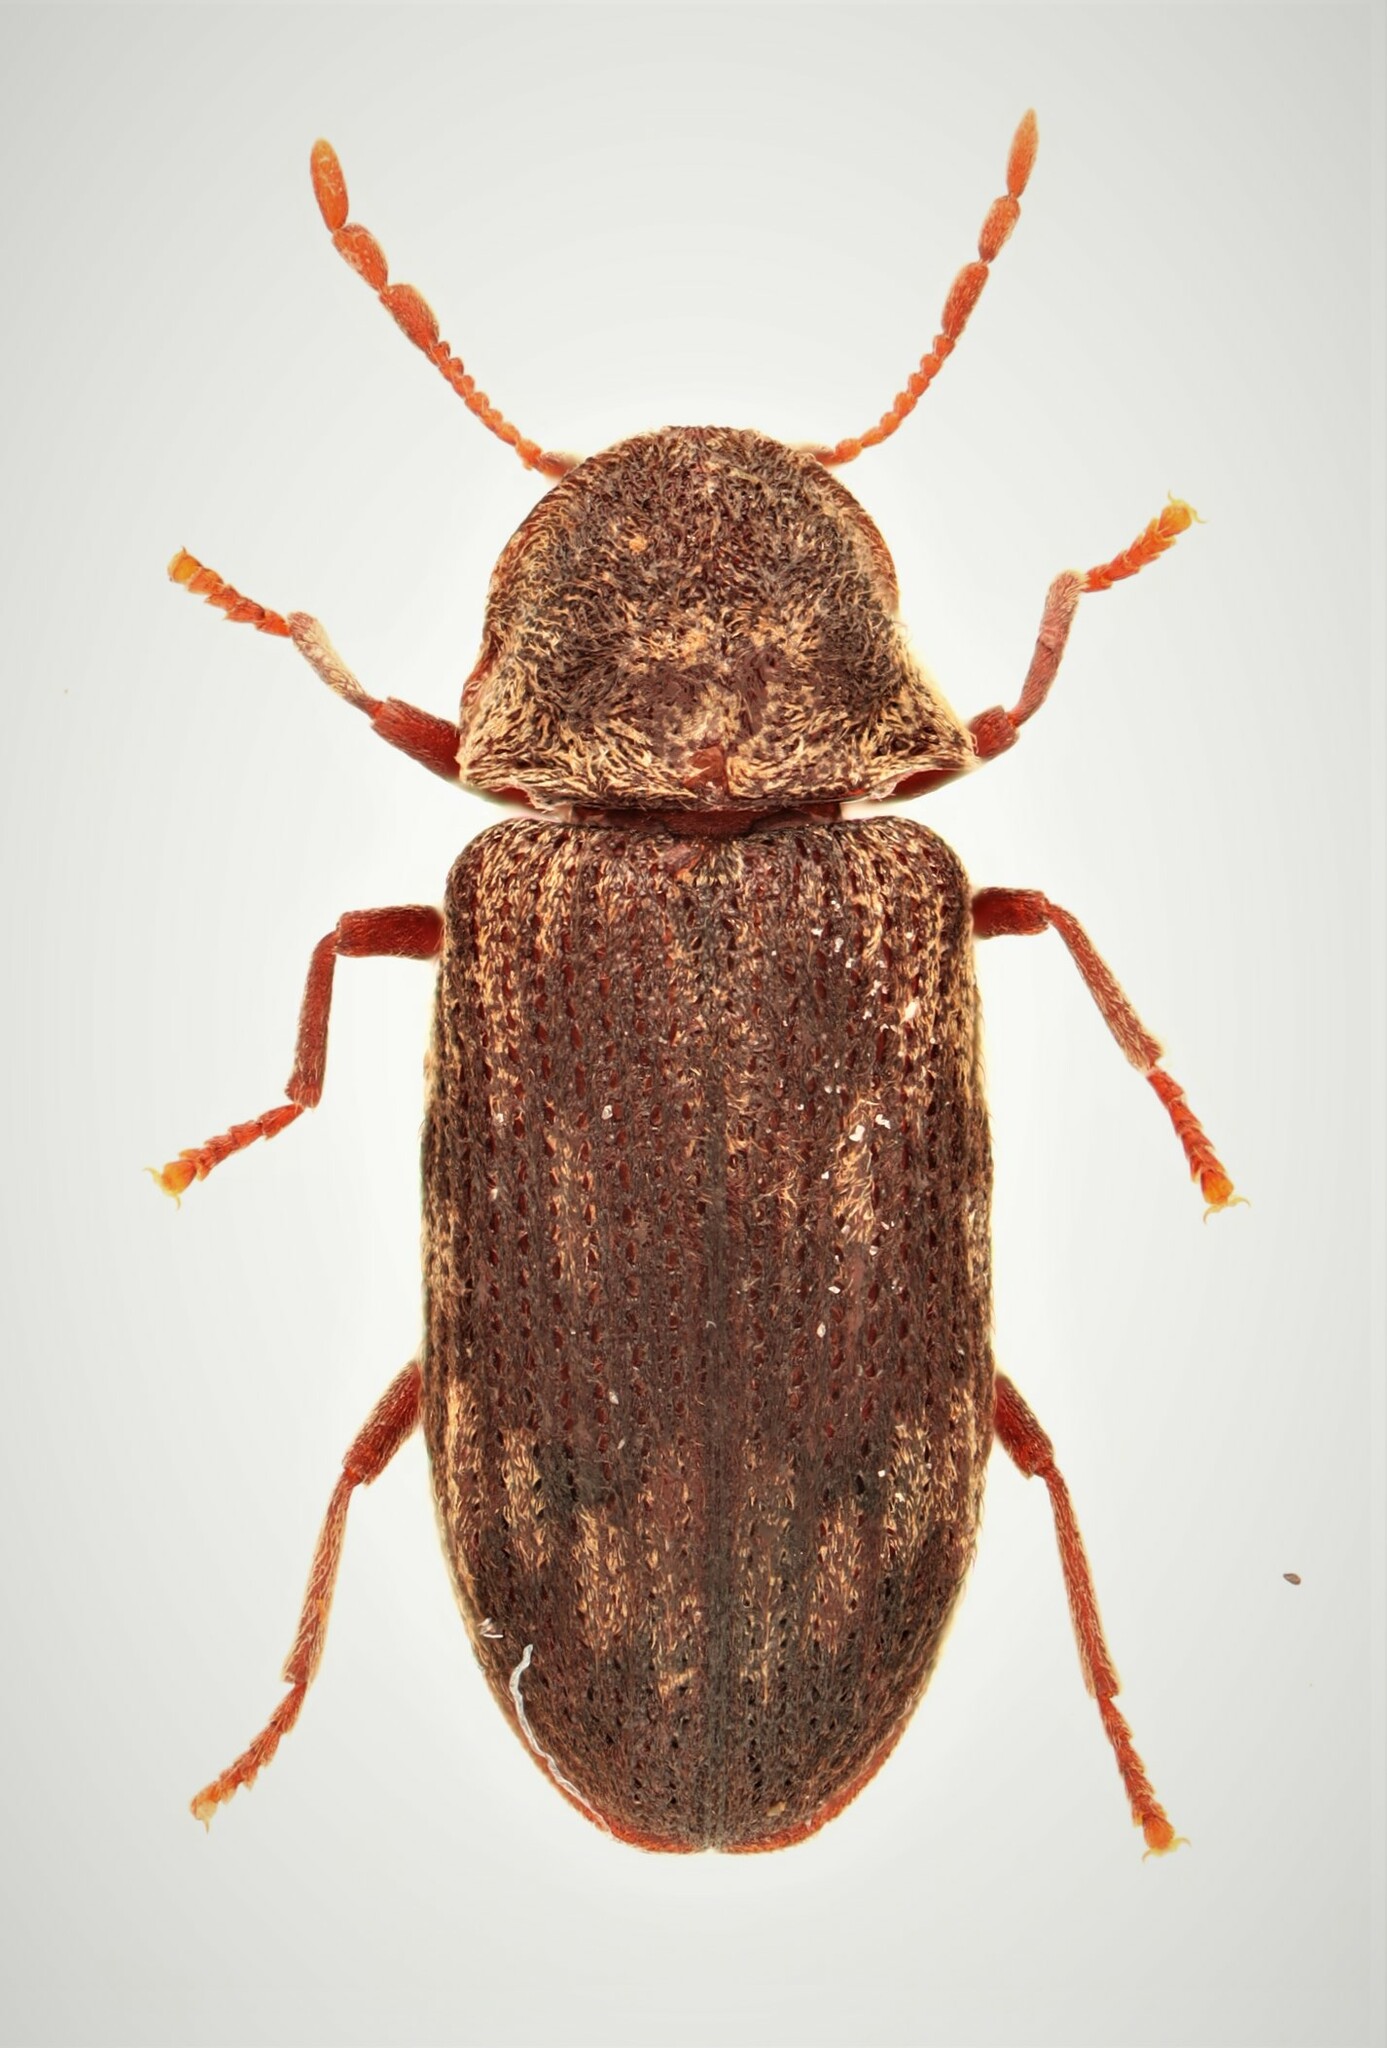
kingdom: Animalia
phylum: Arthropoda
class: Insecta
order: Coleoptera
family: Anobiidae
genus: Hadrobregmus
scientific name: Hadrobregmus notatus
